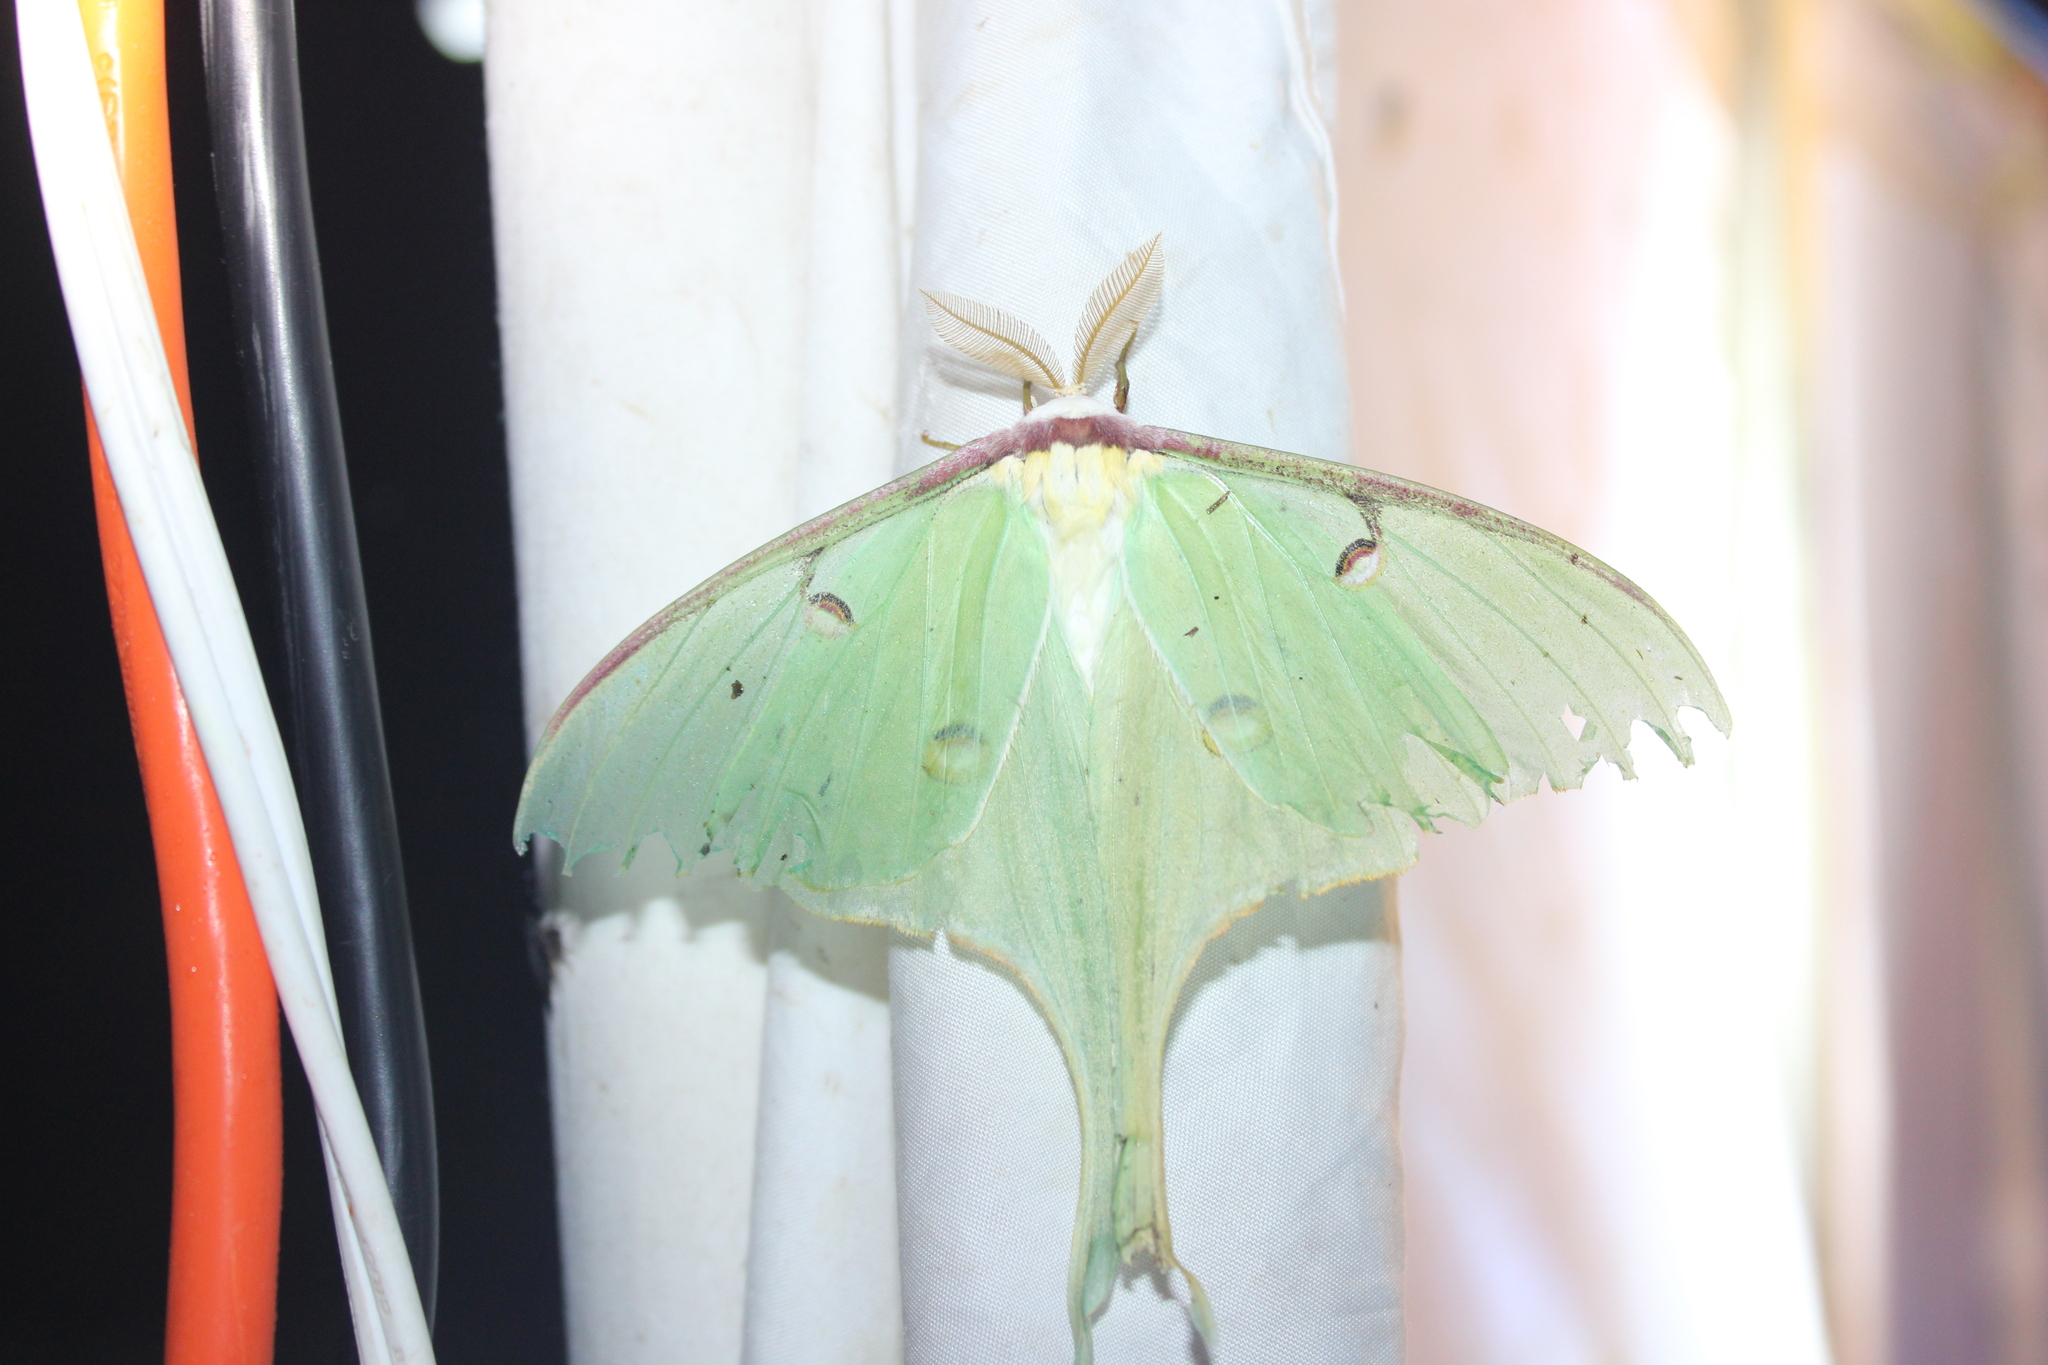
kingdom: Animalia
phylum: Arthropoda
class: Insecta
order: Lepidoptera
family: Saturniidae
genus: Actias
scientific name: Actias luna
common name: Luna moth
